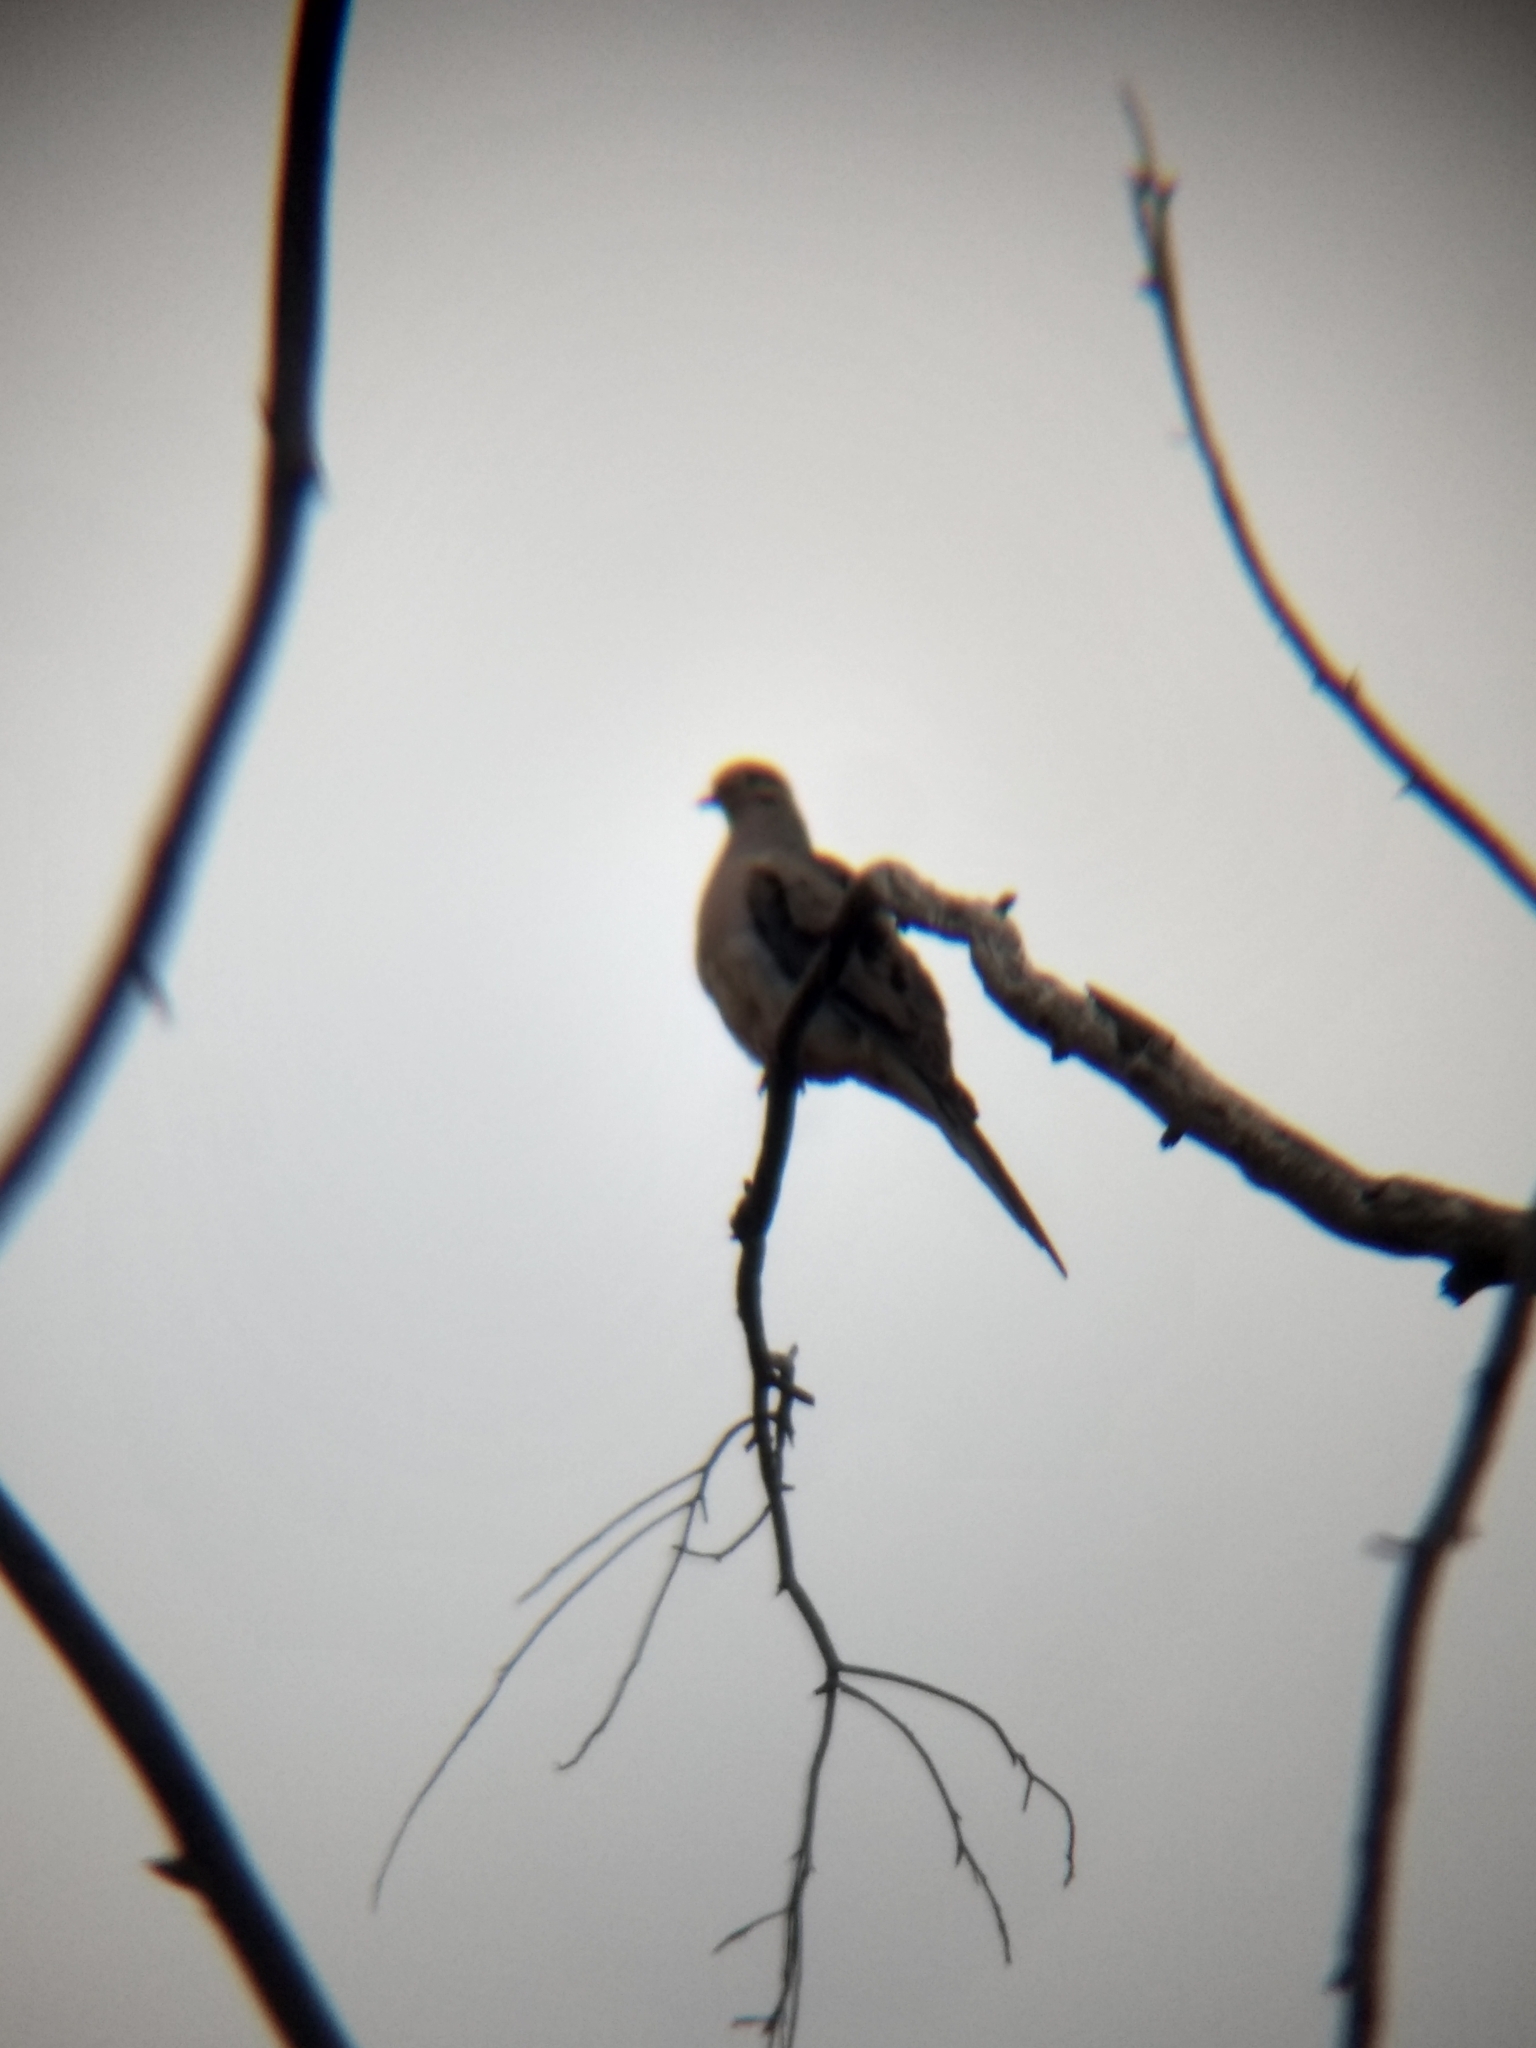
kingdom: Animalia
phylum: Chordata
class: Aves
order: Columbiformes
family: Columbidae
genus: Zenaida
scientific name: Zenaida macroura
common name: Mourning dove
